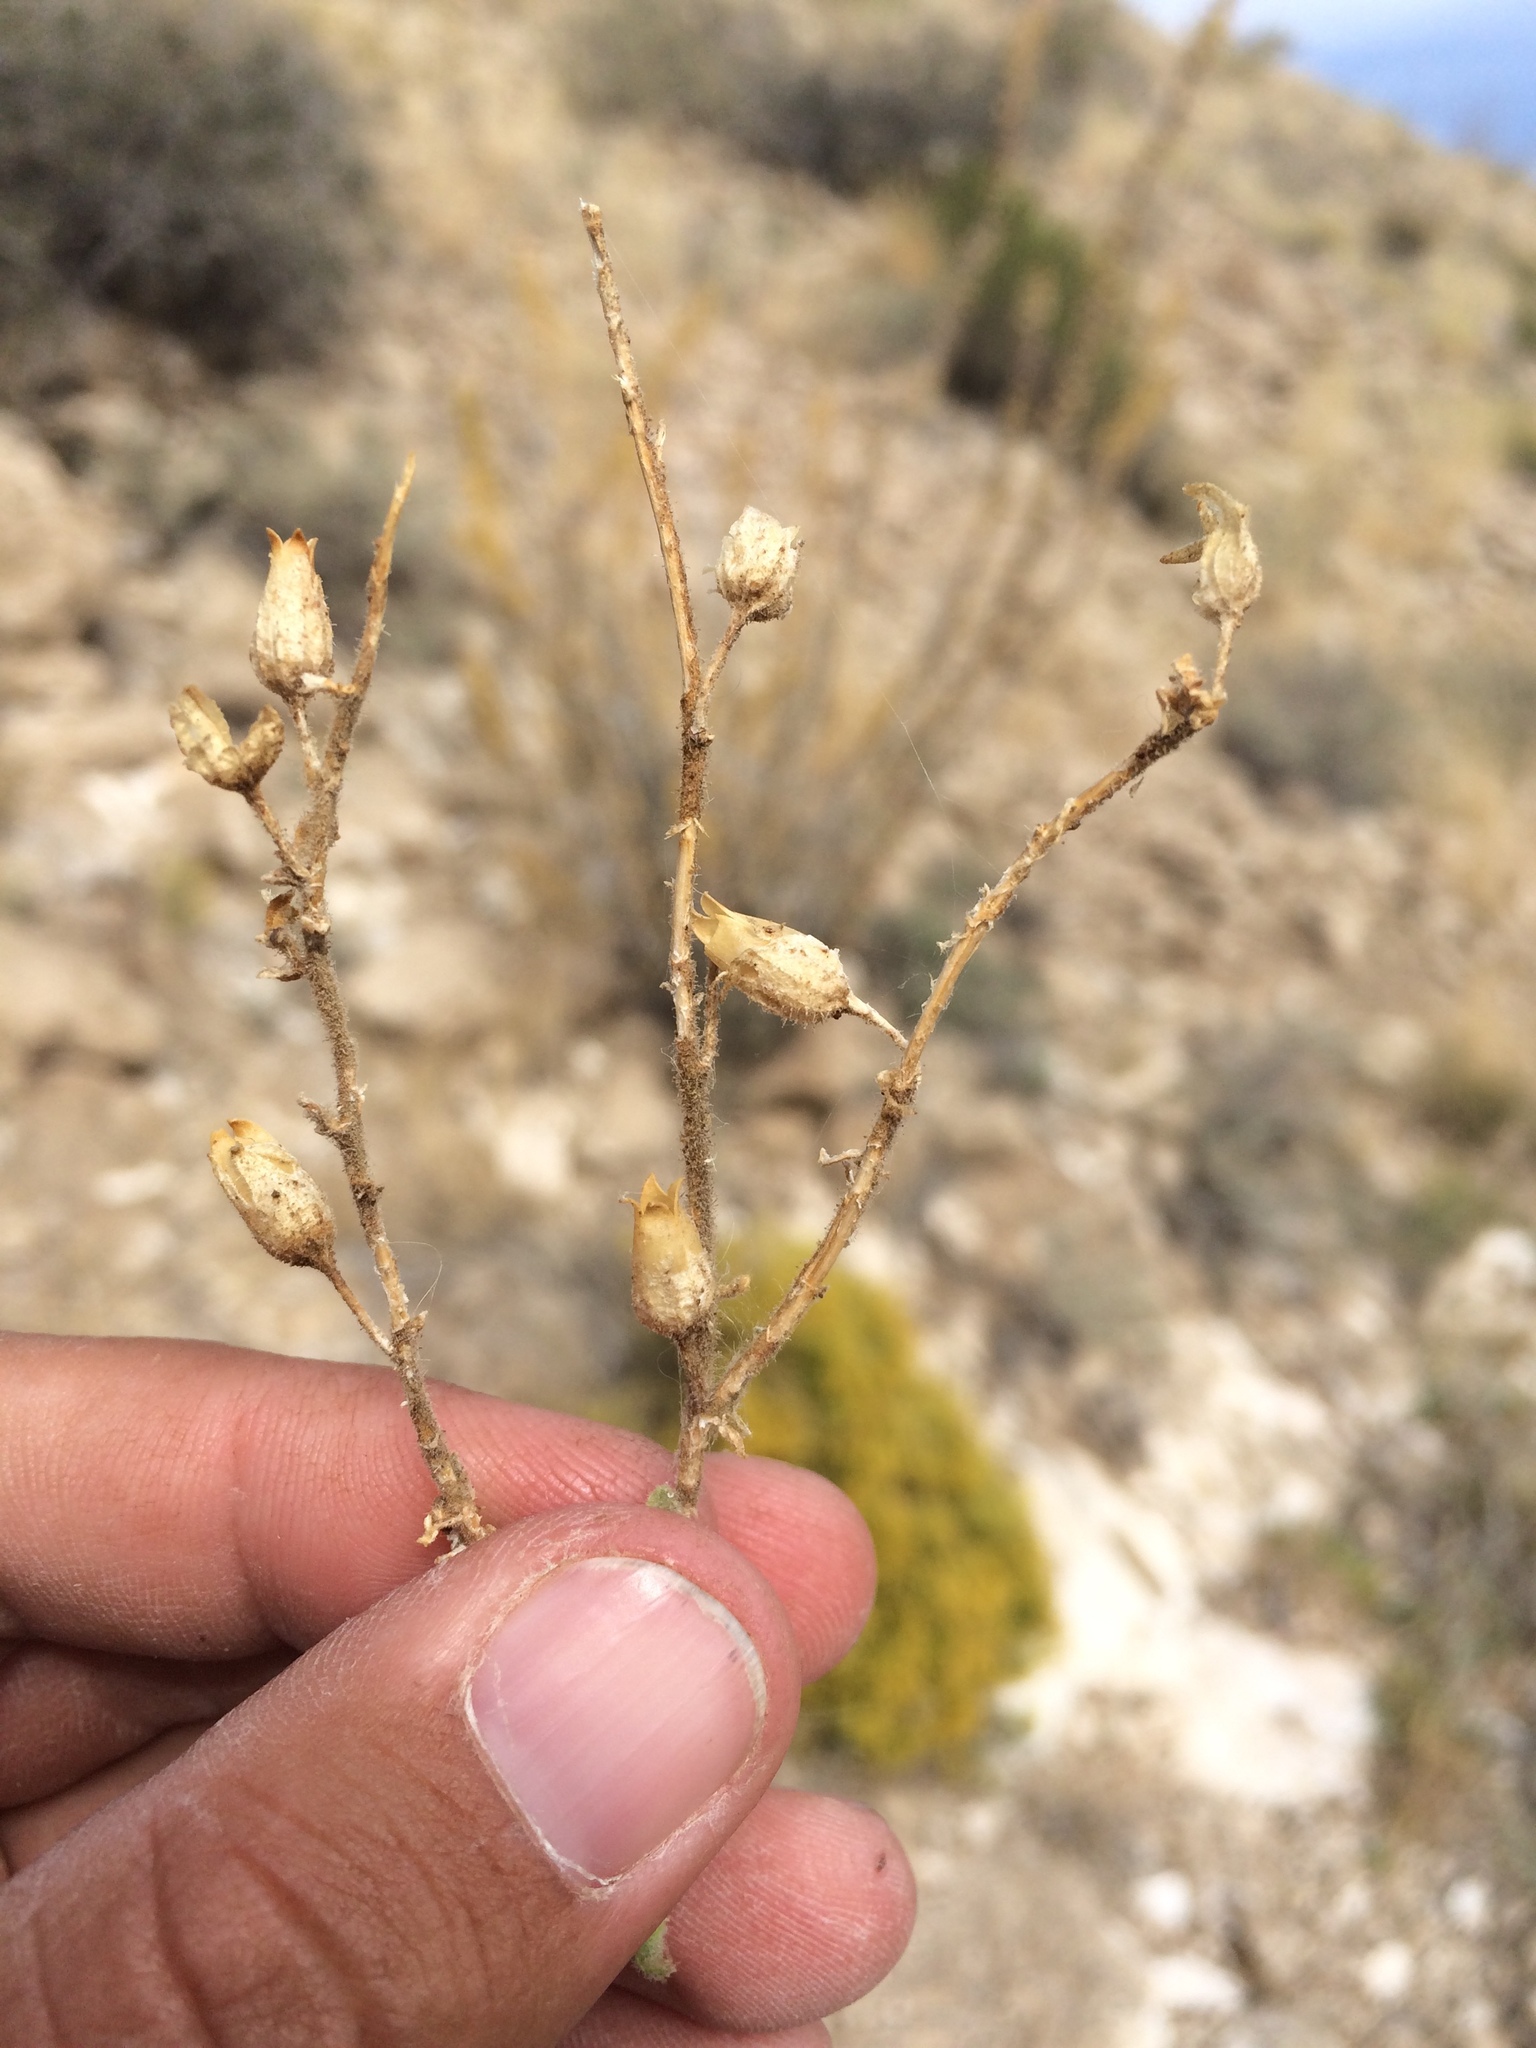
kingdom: Plantae
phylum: Tracheophyta
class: Magnoliopsida
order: Solanales
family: Solanaceae
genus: Nicotiana
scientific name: Nicotiana obtusifolia
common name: Desert tobacco
